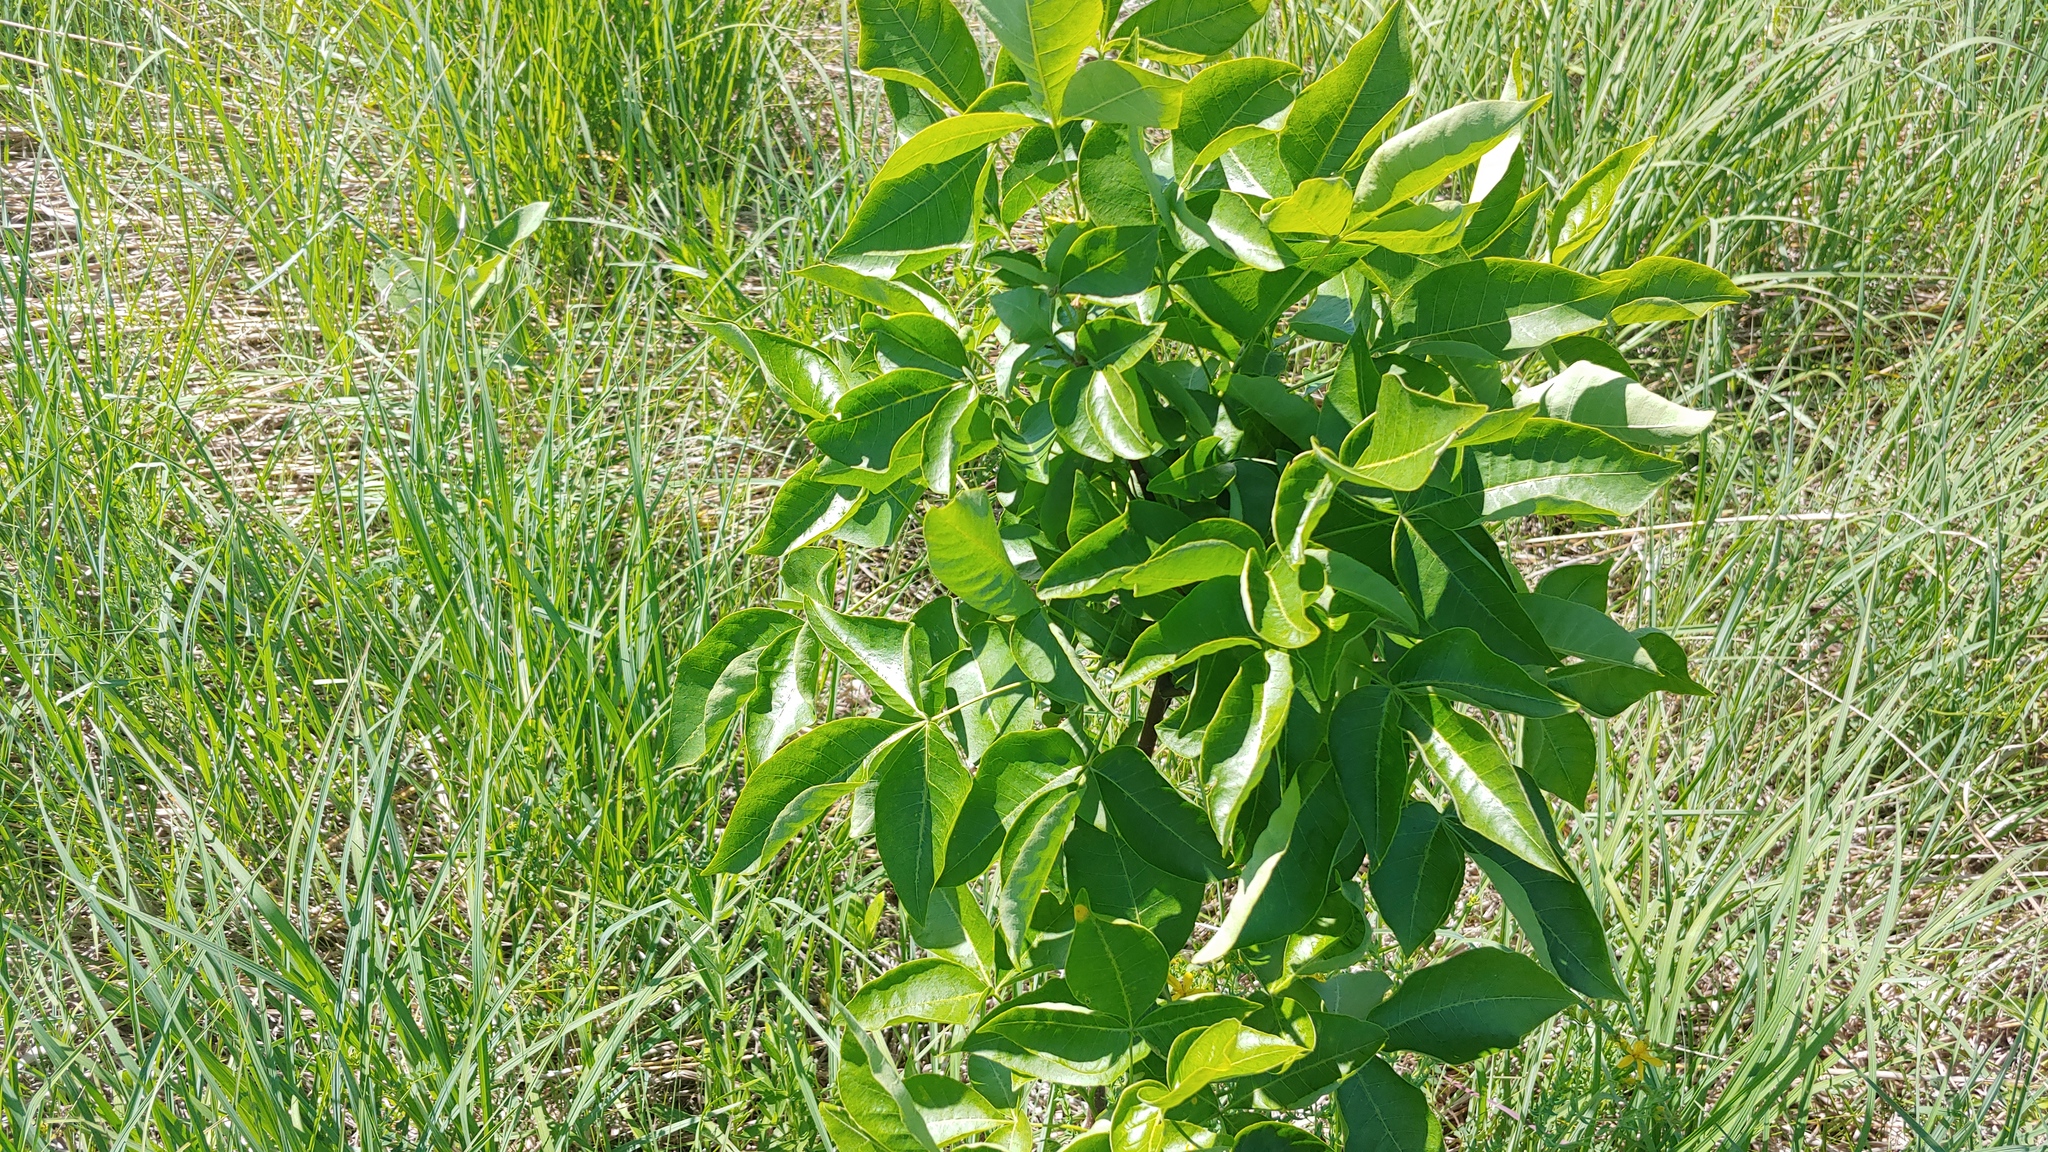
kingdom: Plantae
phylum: Tracheophyta
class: Magnoliopsida
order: Sapindales
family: Rutaceae
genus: Ptelea
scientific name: Ptelea trifoliata
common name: Common hop-tree
